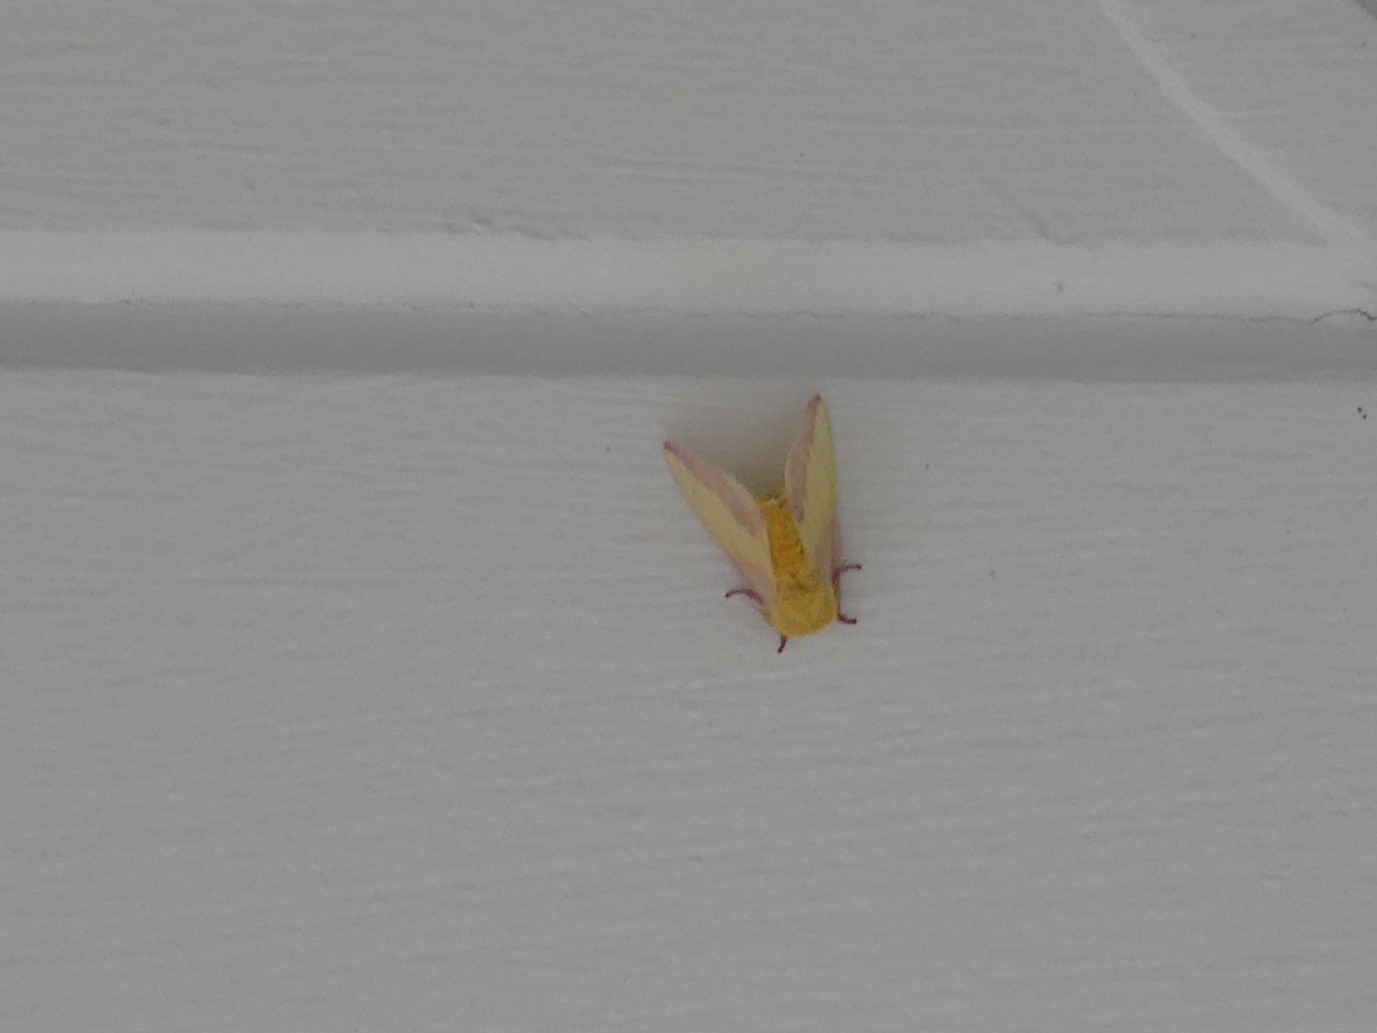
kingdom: Animalia
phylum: Arthropoda
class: Insecta
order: Lepidoptera
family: Saturniidae
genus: Dryocampa
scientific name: Dryocampa rubicunda
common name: Rosy maple moth
